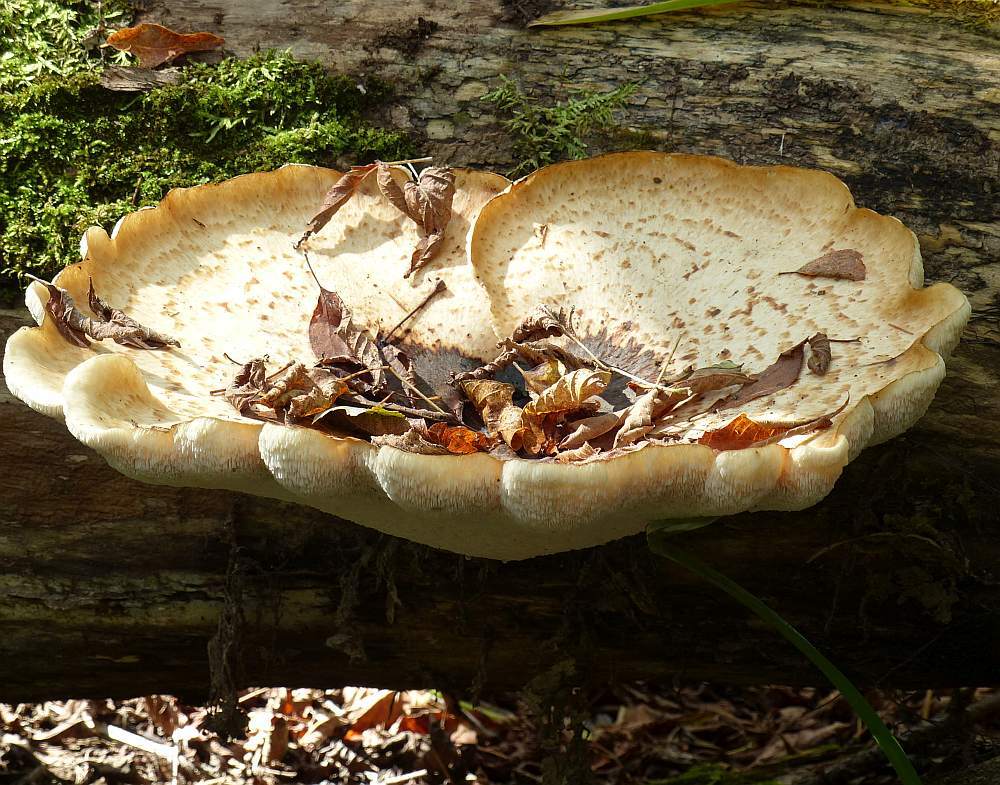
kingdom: Fungi
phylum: Basidiomycota
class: Agaricomycetes
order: Polyporales
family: Polyporaceae
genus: Cerioporus
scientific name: Cerioporus squamosus
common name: Dryad's saddle
